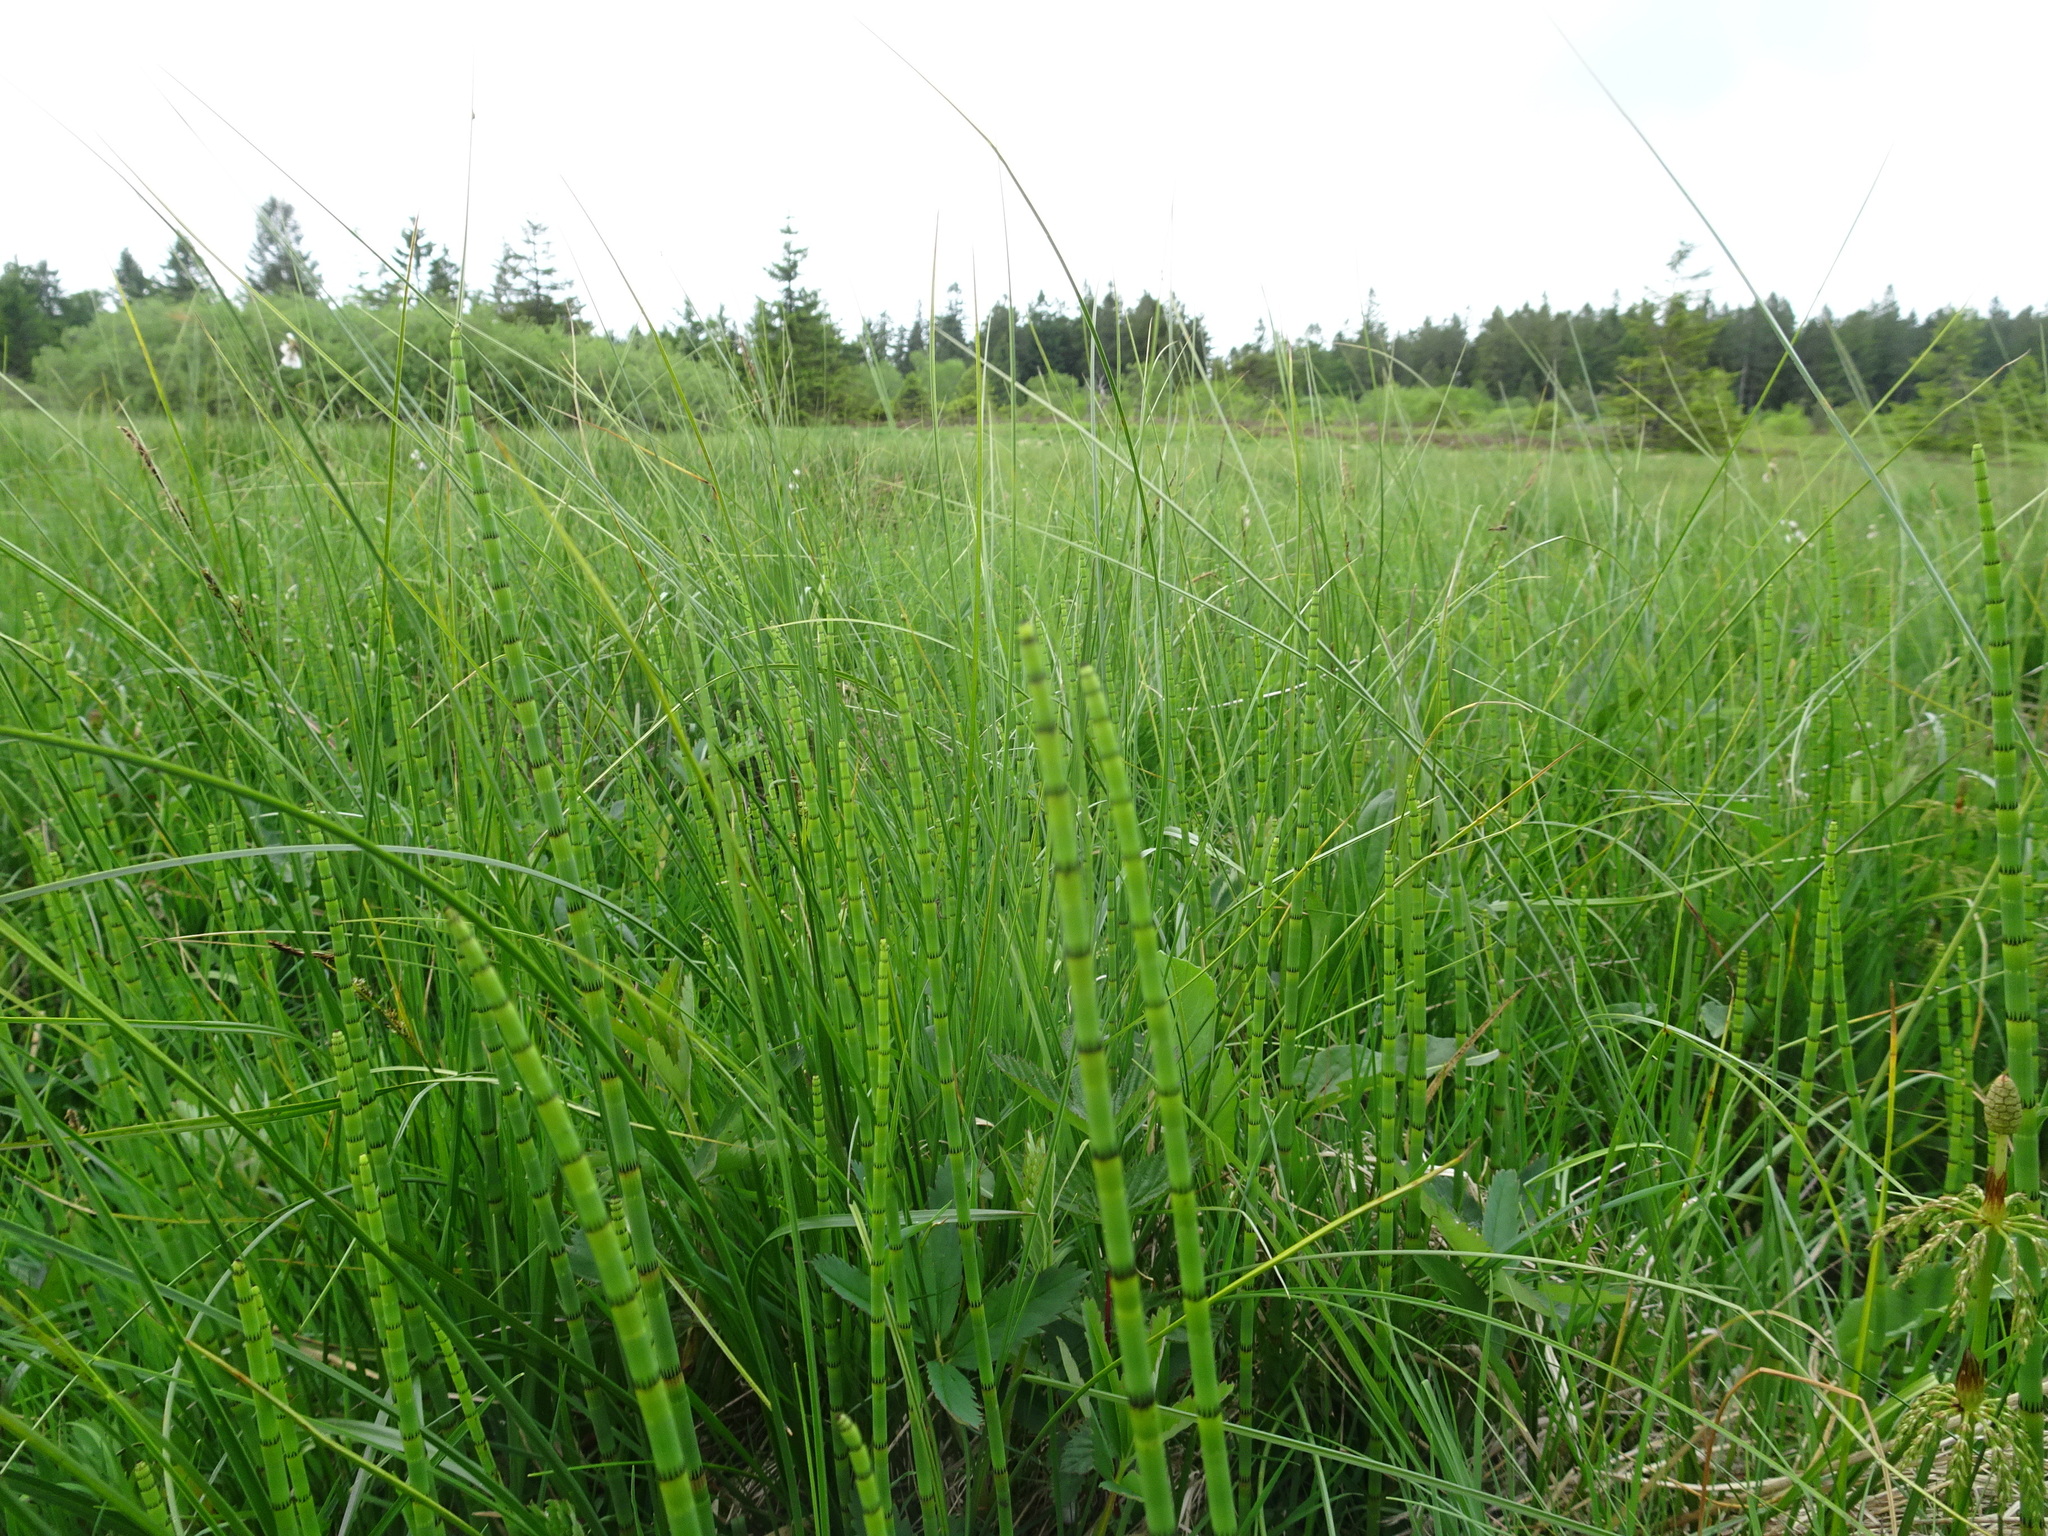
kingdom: Plantae
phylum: Tracheophyta
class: Polypodiopsida
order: Equisetales
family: Equisetaceae
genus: Equisetum
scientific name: Equisetum fluviatile
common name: Water horsetail
